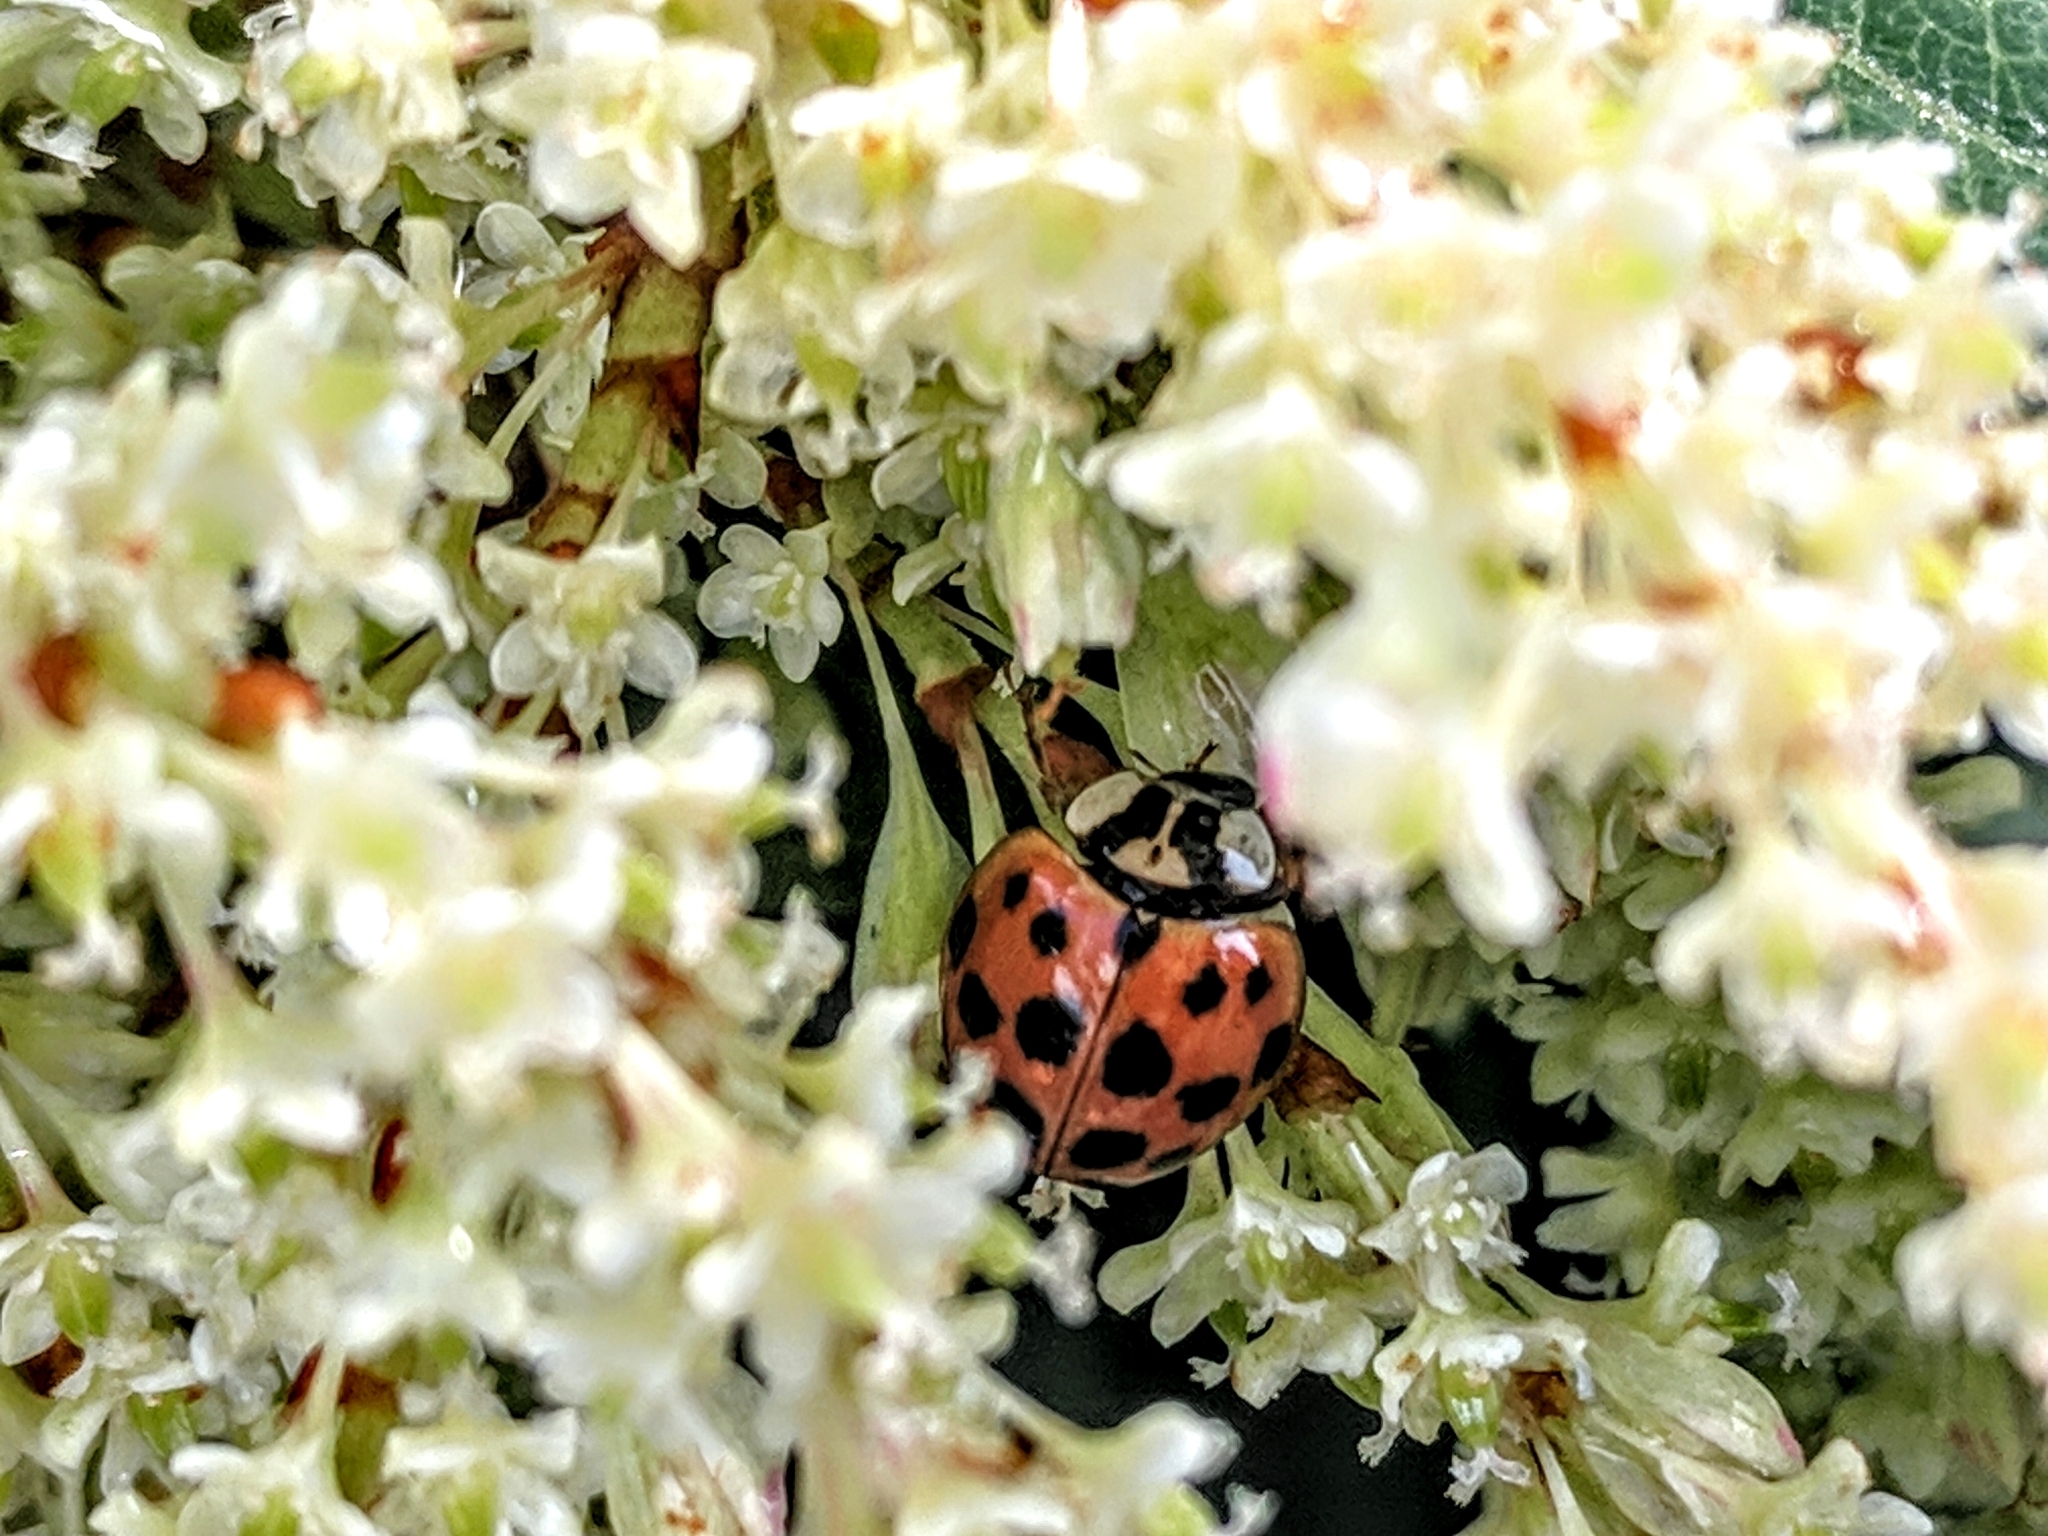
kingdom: Animalia
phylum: Arthropoda
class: Insecta
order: Coleoptera
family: Coccinellidae
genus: Harmonia
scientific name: Harmonia axyridis
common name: Harlequin ladybird
